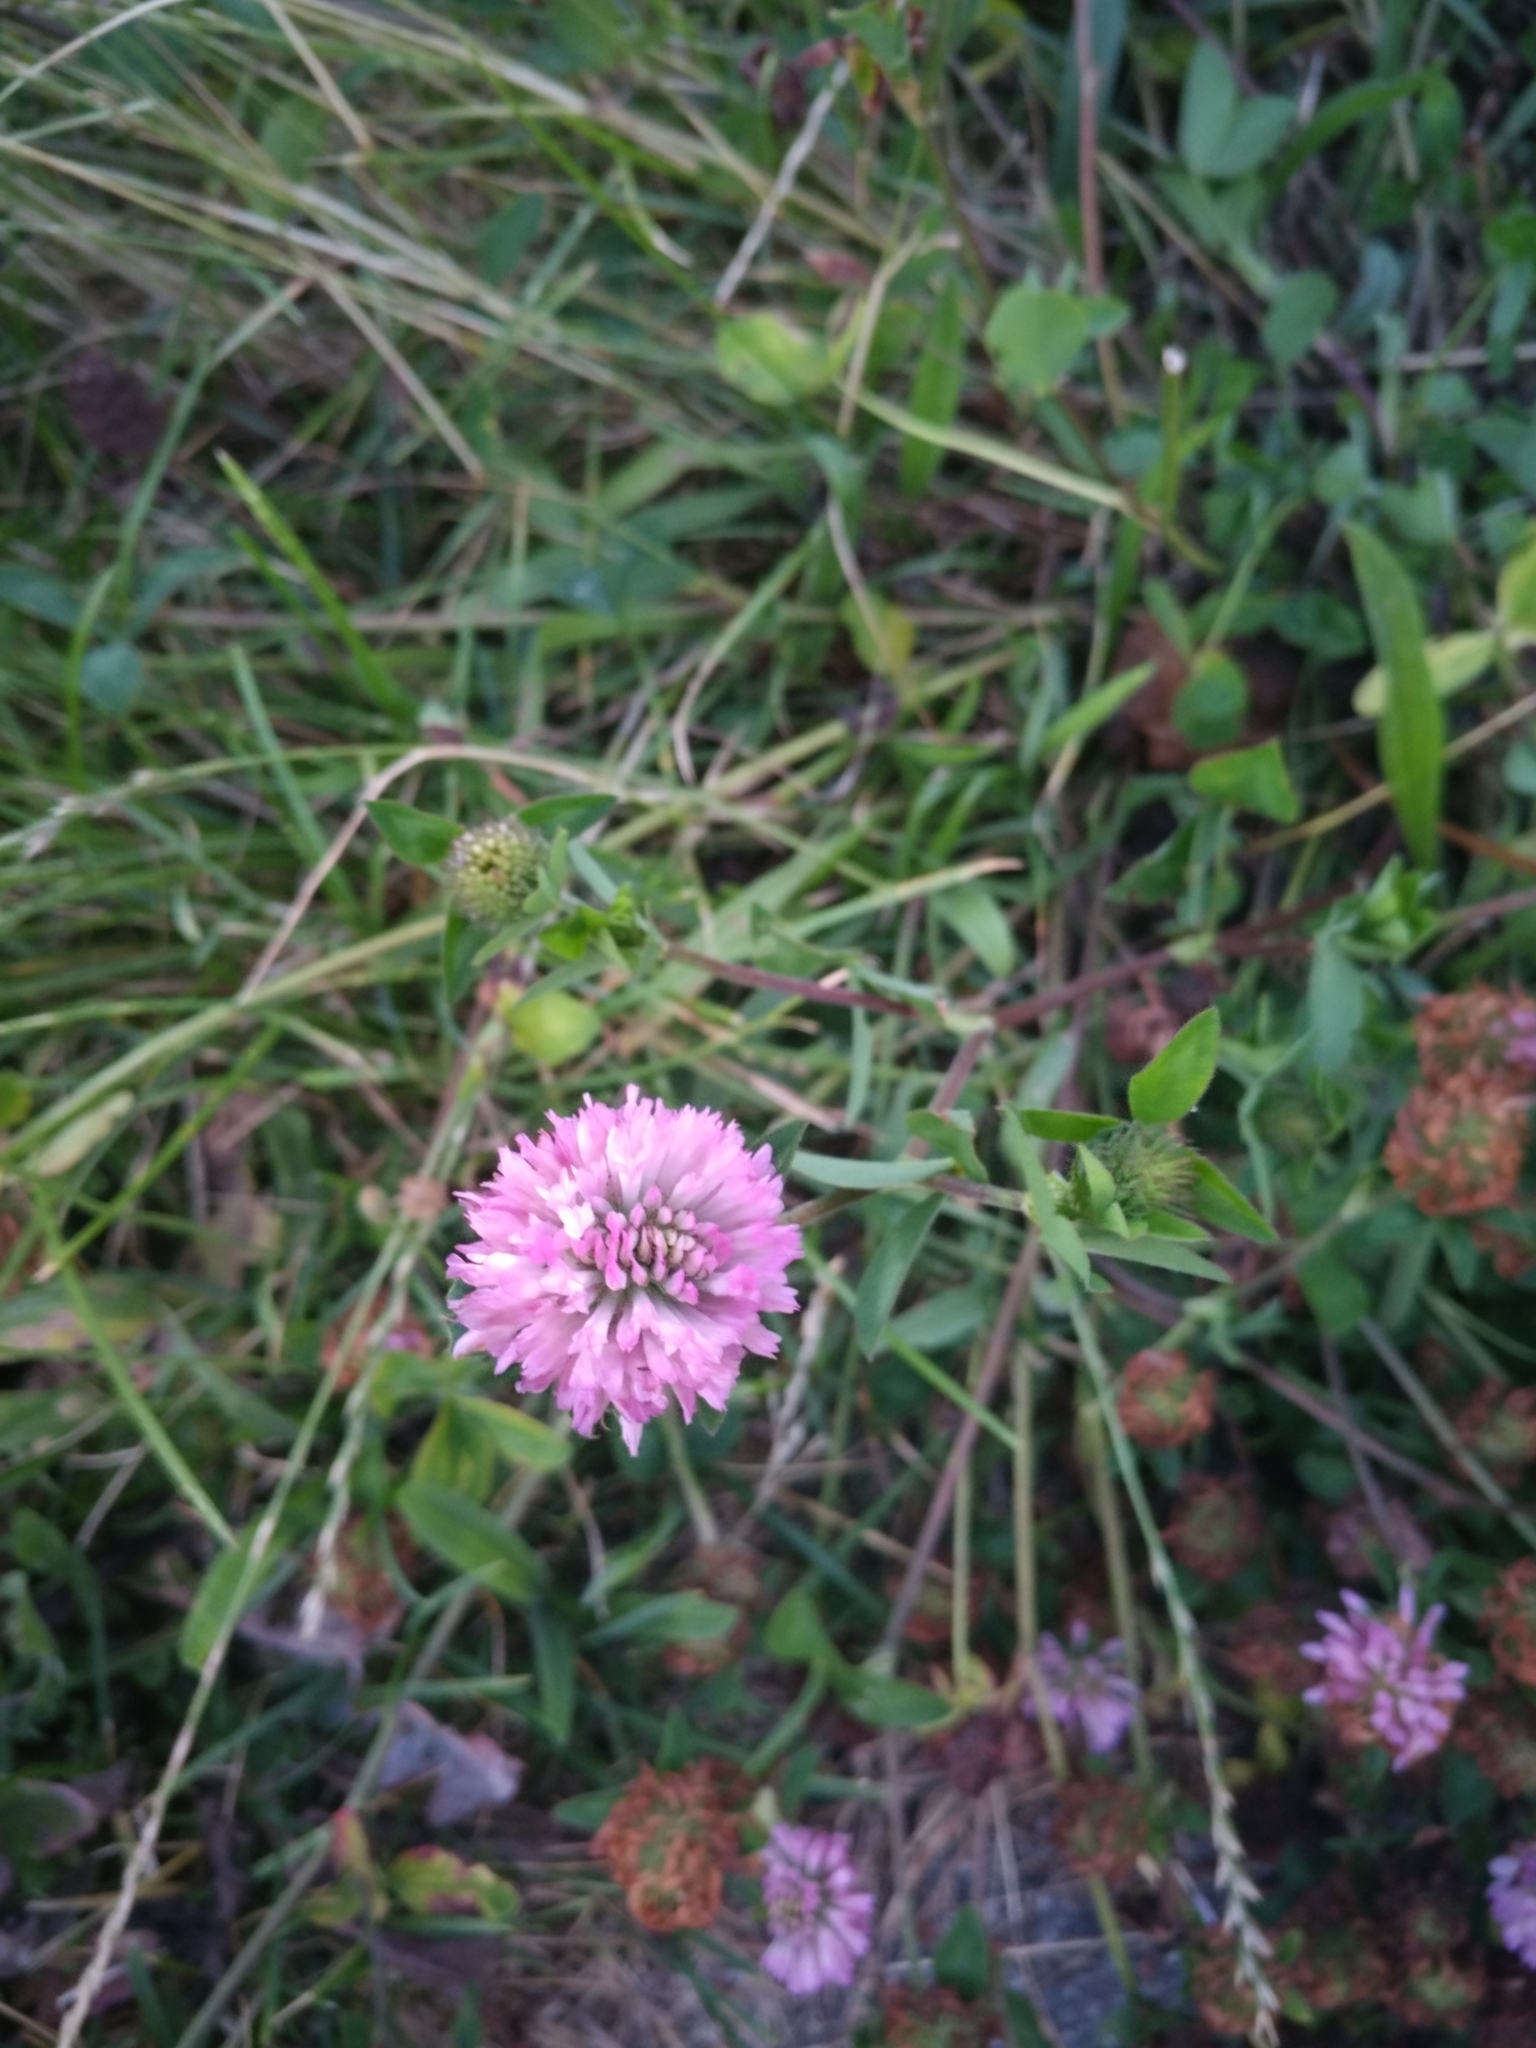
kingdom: Plantae
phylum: Tracheophyta
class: Magnoliopsida
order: Fabales
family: Fabaceae
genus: Trifolium
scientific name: Trifolium pratense
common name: Red clover
